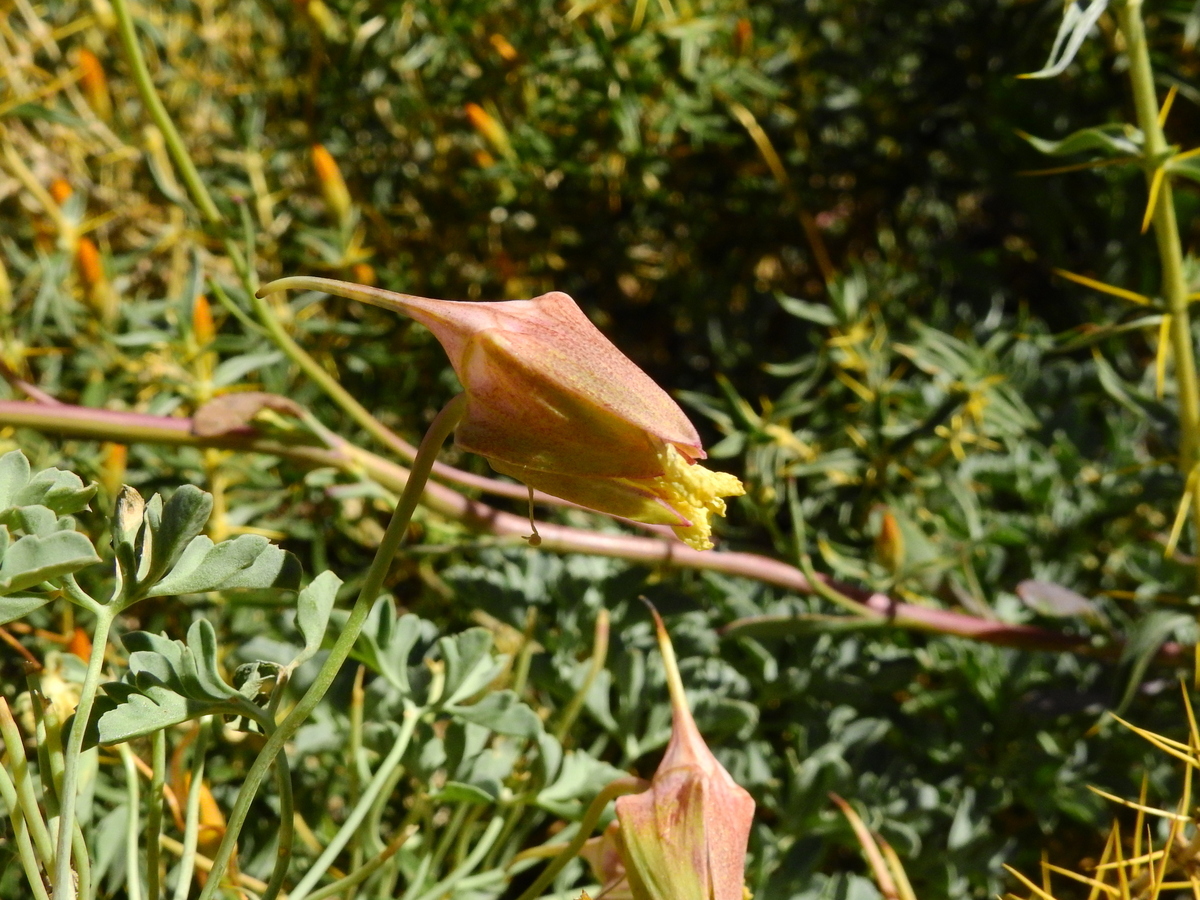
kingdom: Plantae
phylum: Tracheophyta
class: Magnoliopsida
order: Brassicales
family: Tropaeolaceae
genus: Tropaeolum
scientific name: Tropaeolum polyphyllum
